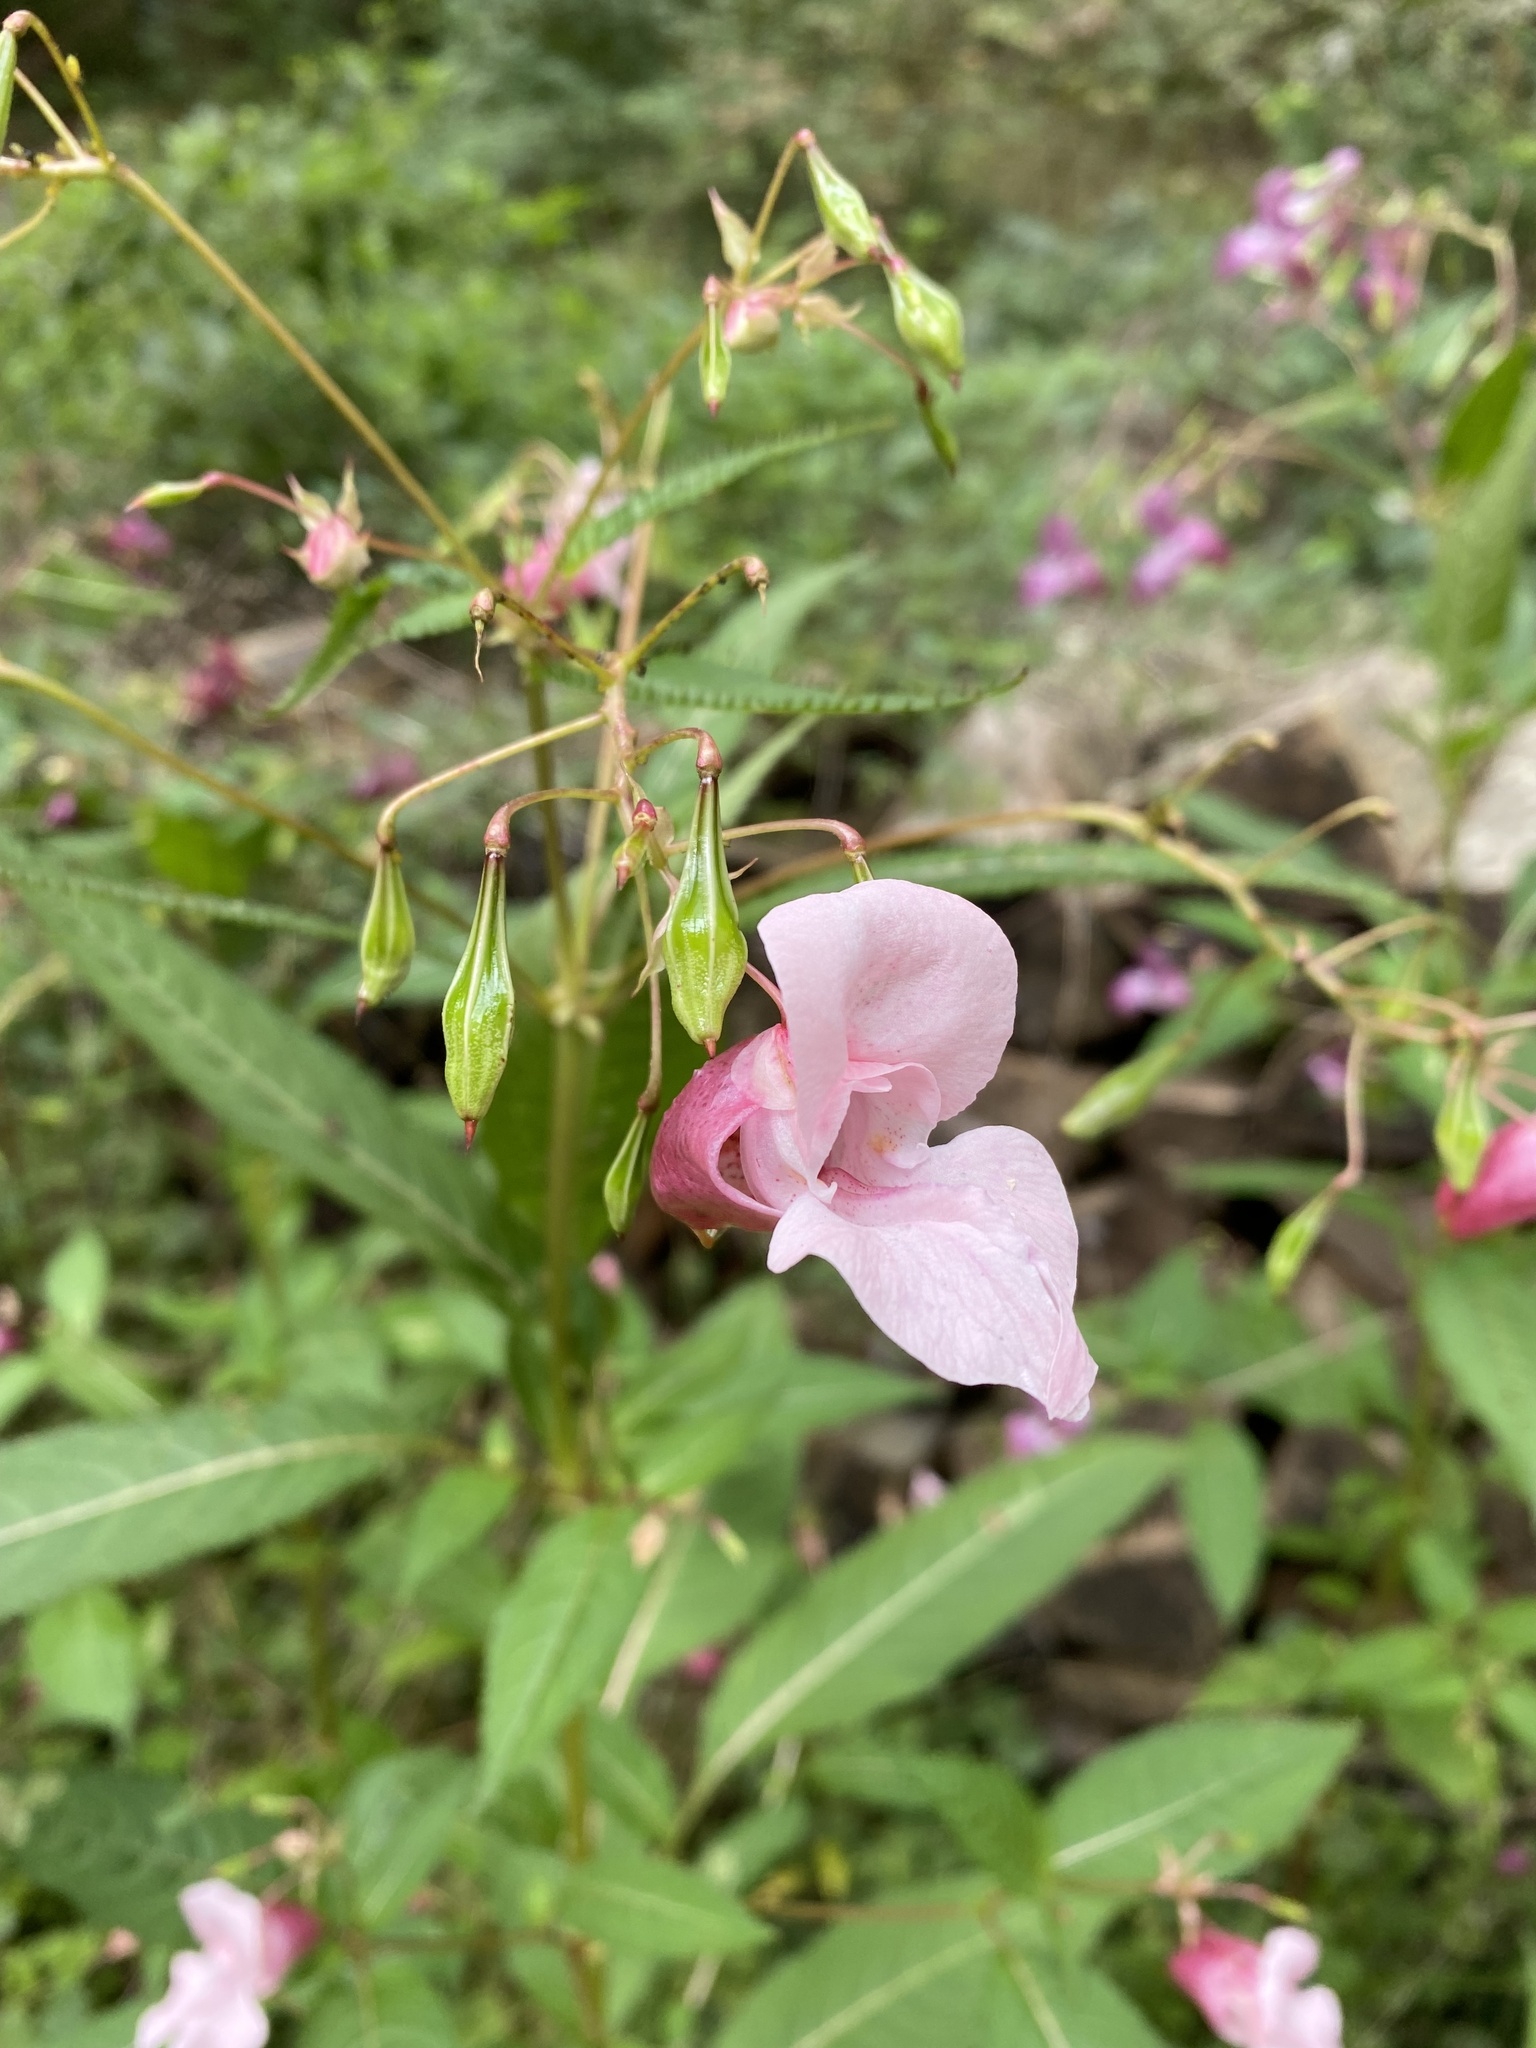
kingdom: Plantae
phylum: Tracheophyta
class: Magnoliopsida
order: Ericales
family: Balsaminaceae
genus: Impatiens
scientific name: Impatiens glandulifera
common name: Himalayan balsam
